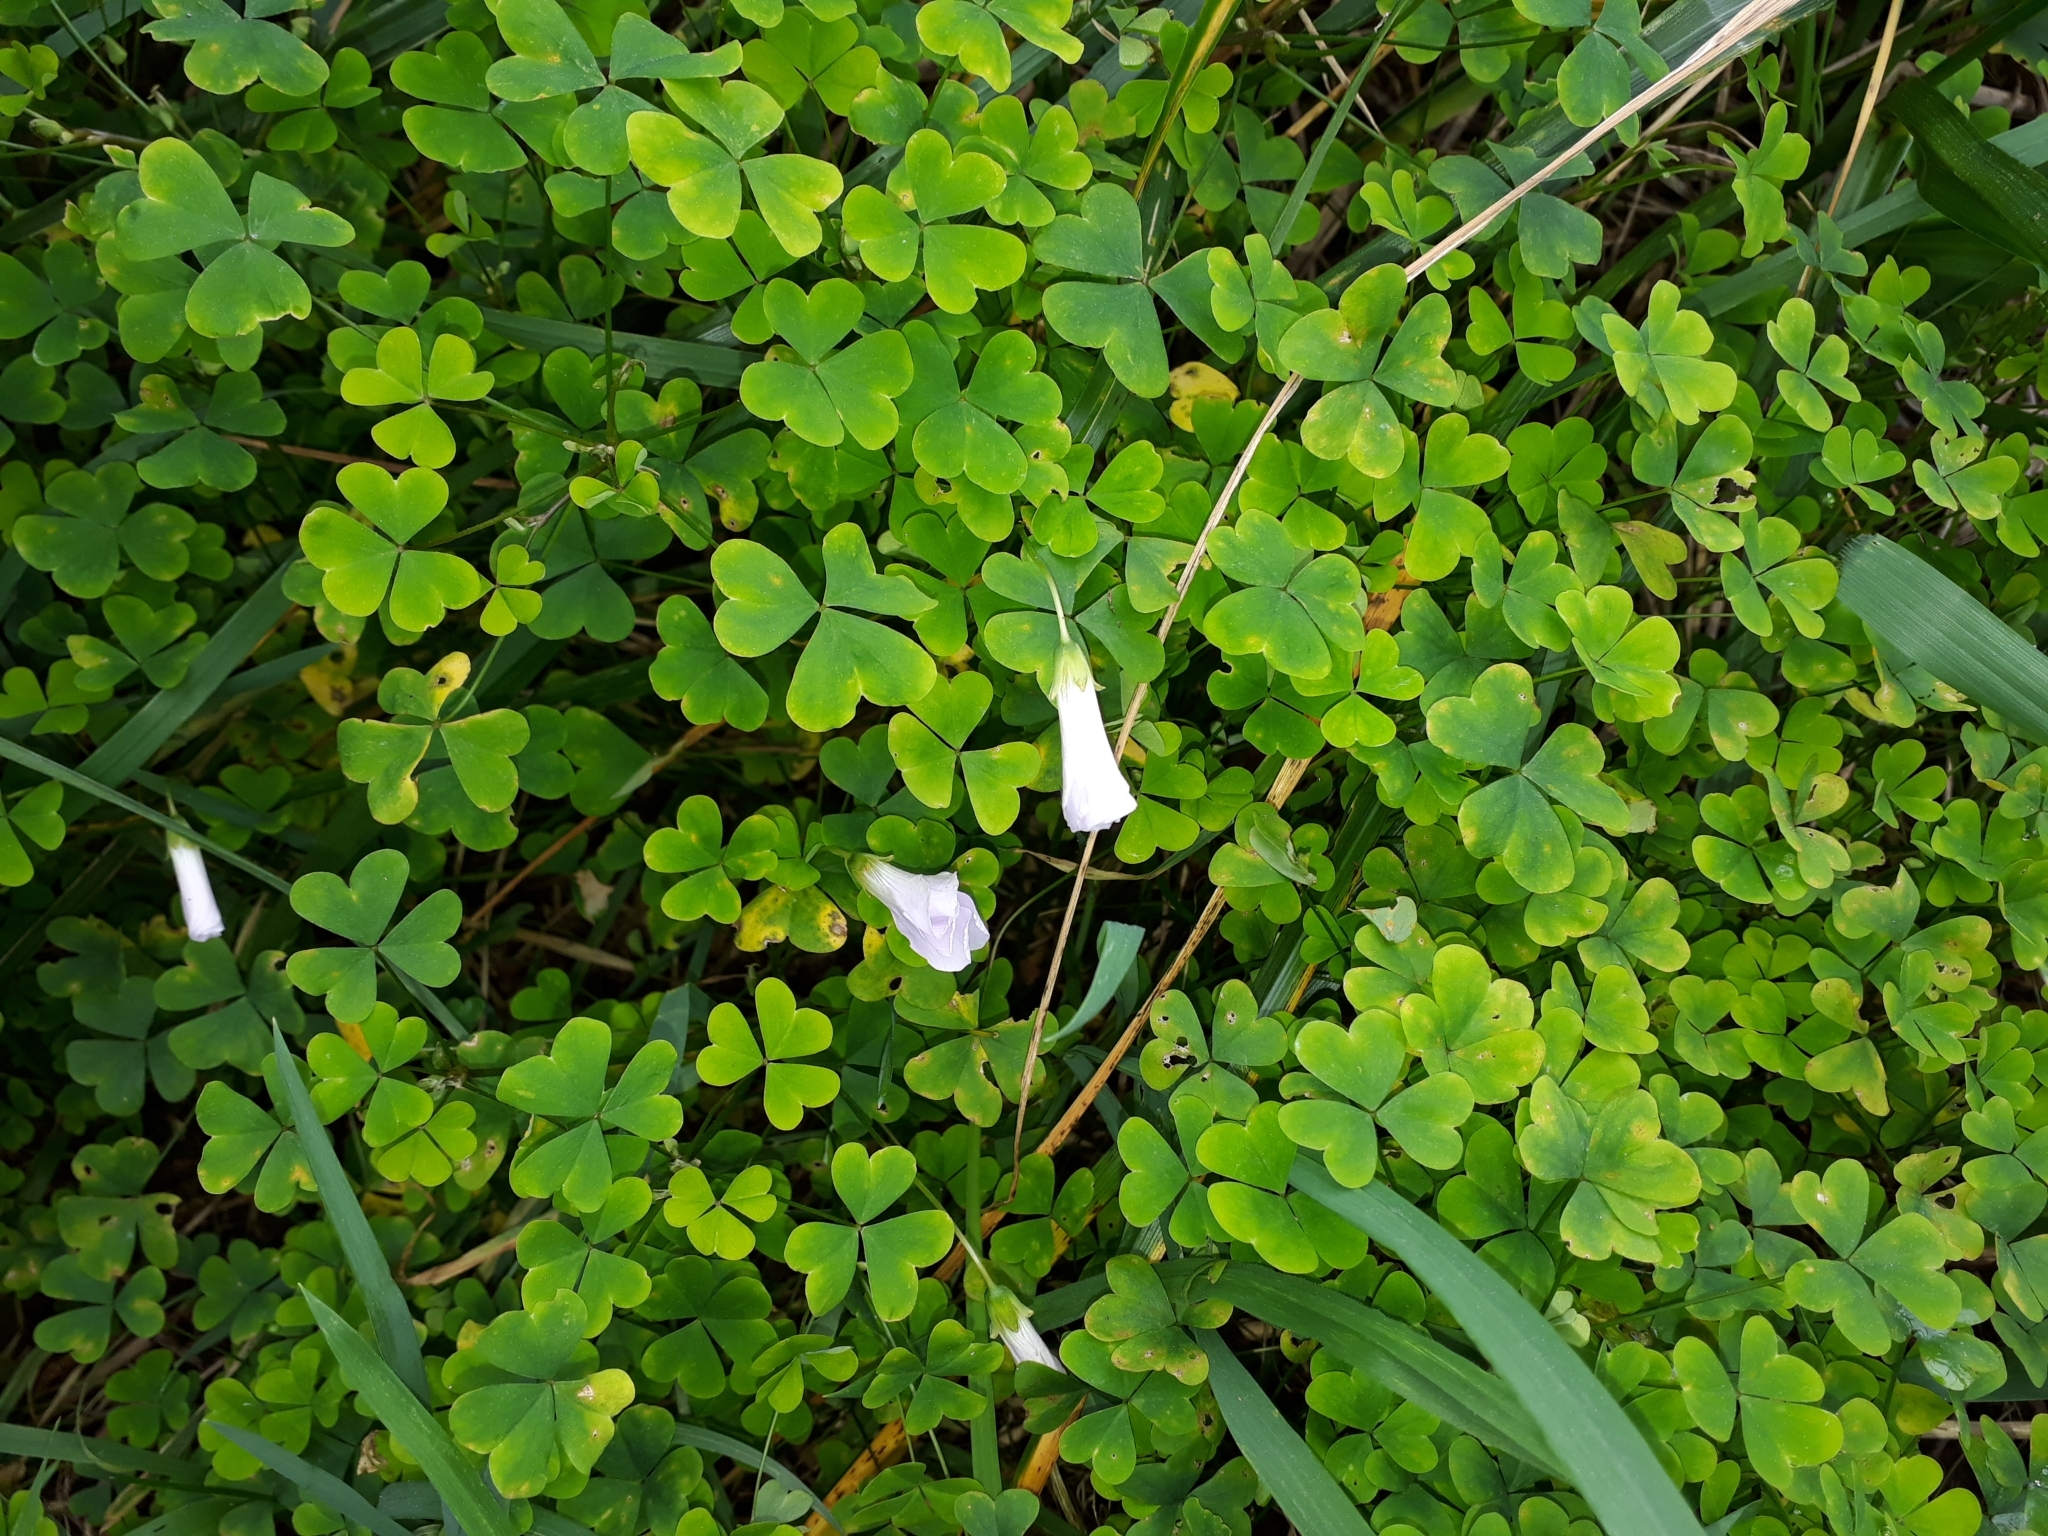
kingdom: Plantae
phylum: Tracheophyta
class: Magnoliopsida
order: Oxalidales
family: Oxalidaceae
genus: Oxalis
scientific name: Oxalis incarnata
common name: Pale pink-sorrel
